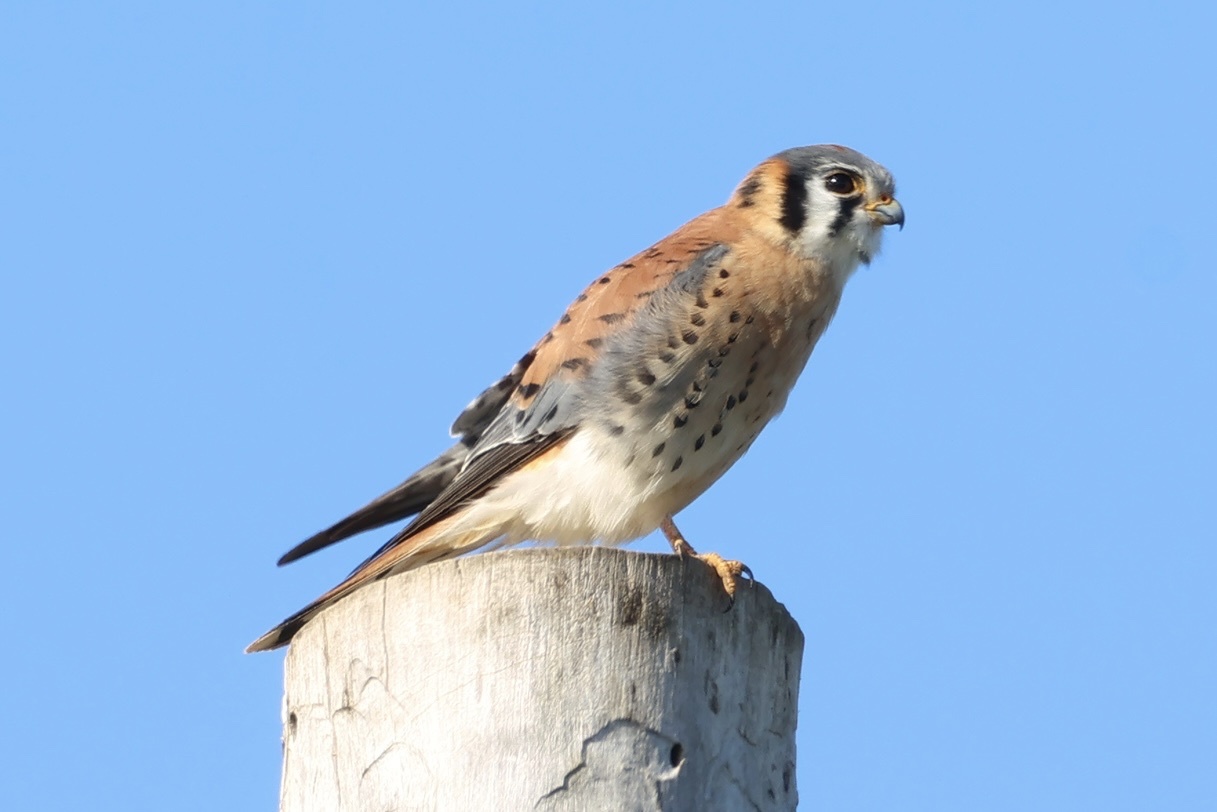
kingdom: Animalia
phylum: Chordata
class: Aves
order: Falconiformes
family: Falconidae
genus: Falco
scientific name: Falco sparverius
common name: American kestrel
